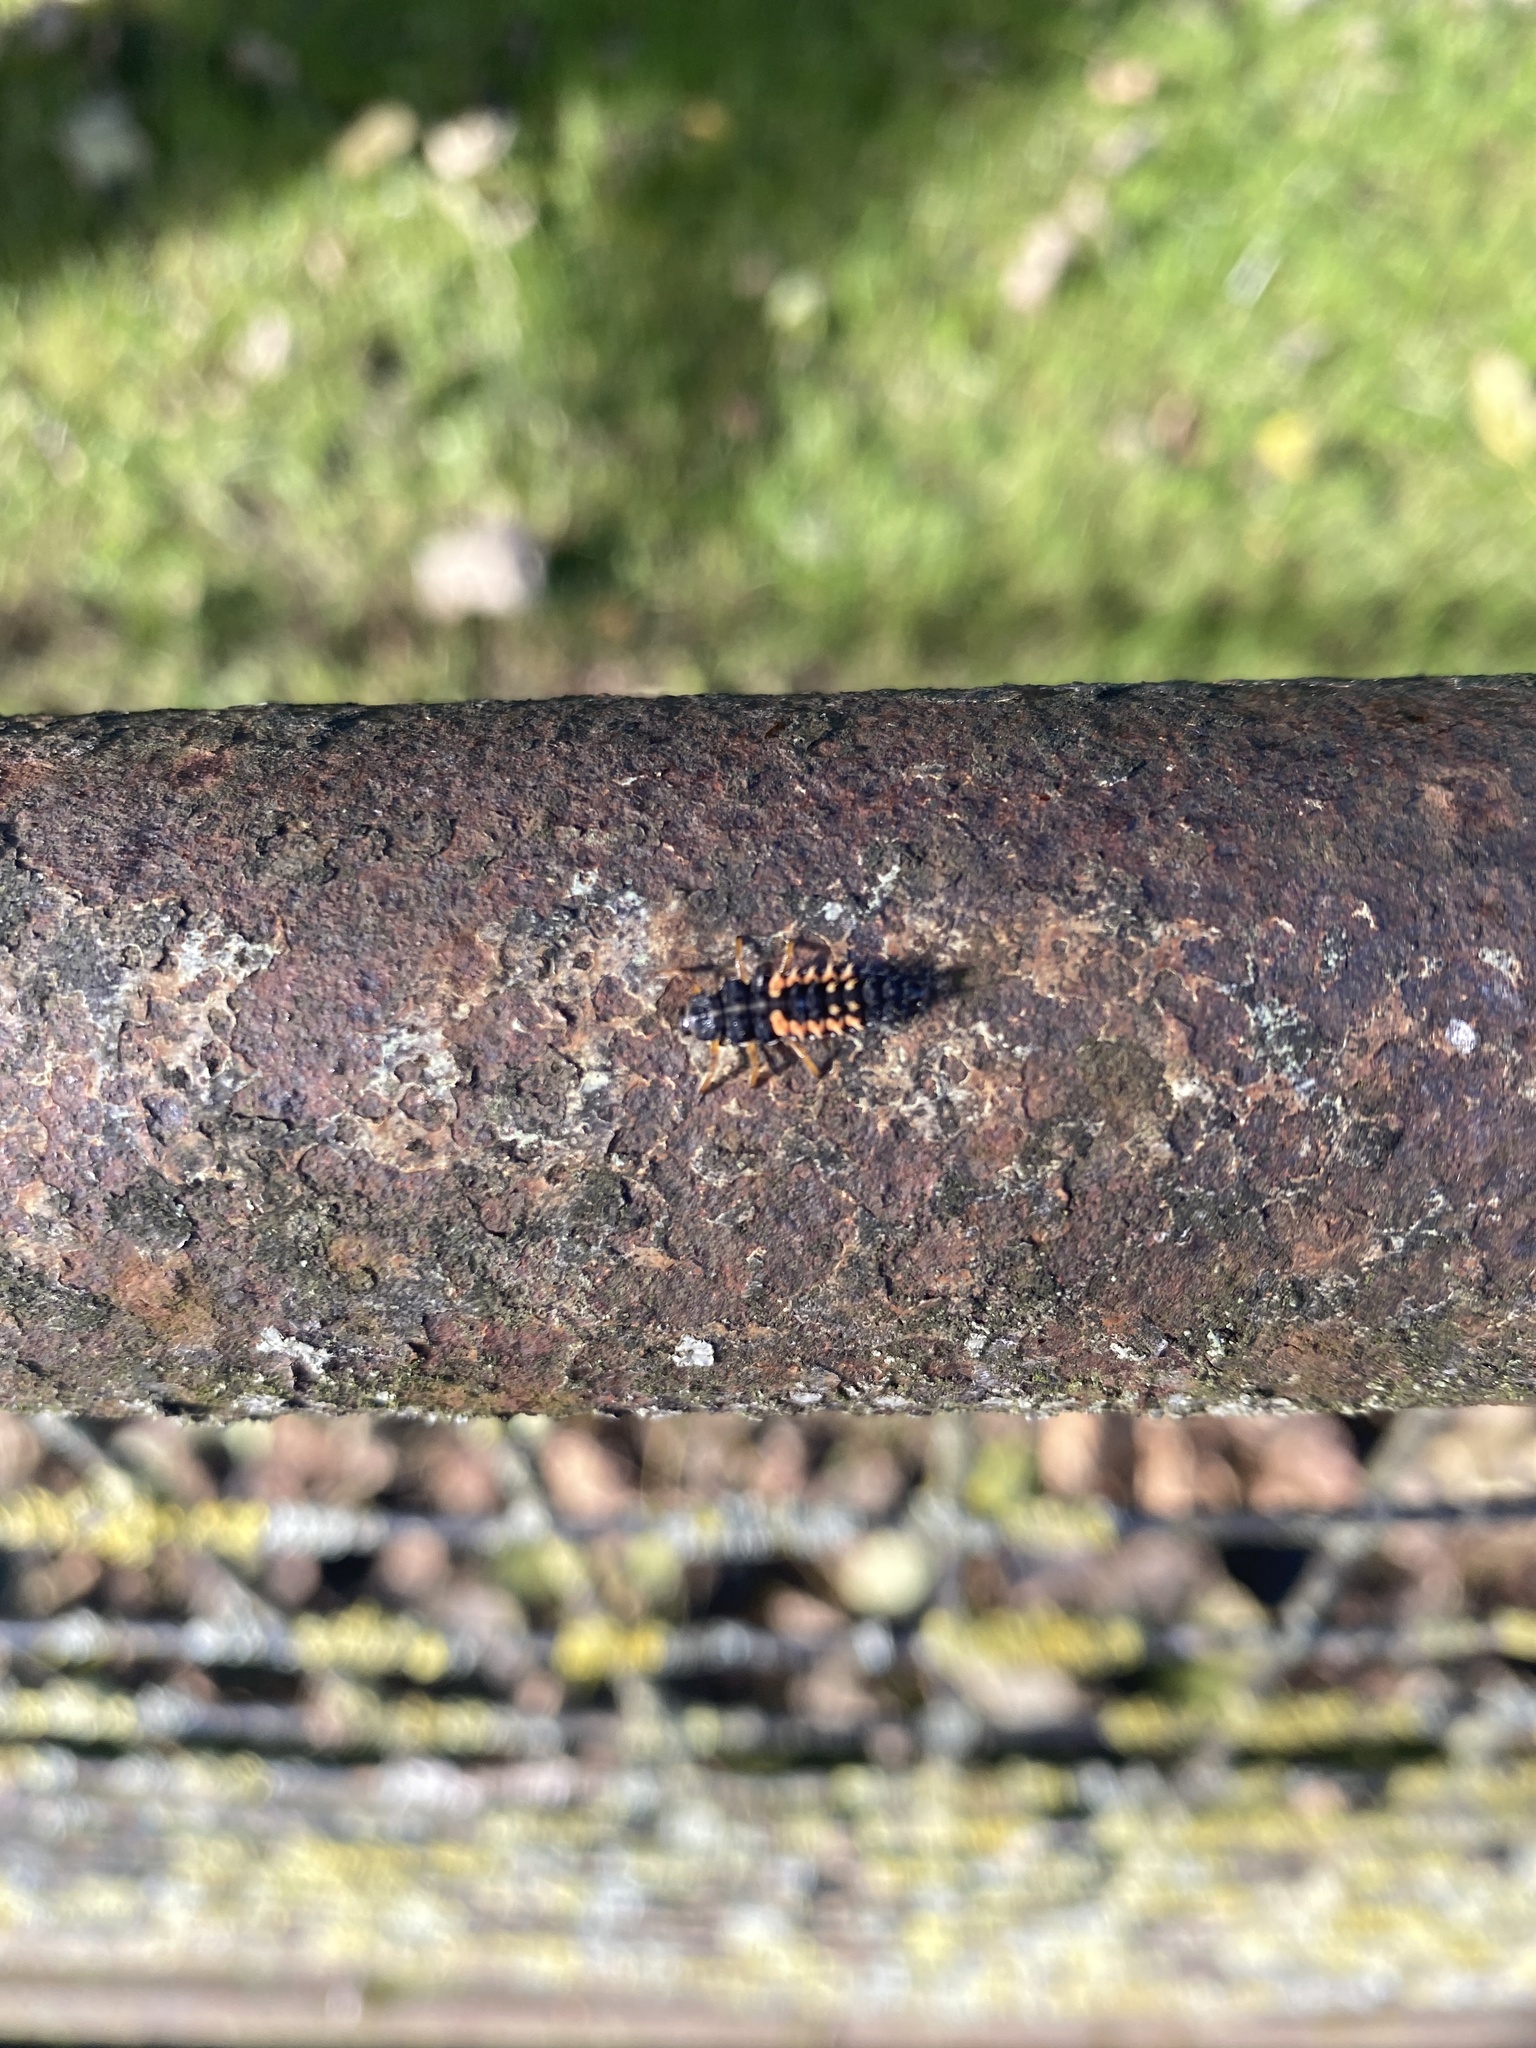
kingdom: Animalia
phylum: Arthropoda
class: Insecta
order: Coleoptera
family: Coccinellidae
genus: Harmonia
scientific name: Harmonia axyridis
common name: Harlequin ladybird
